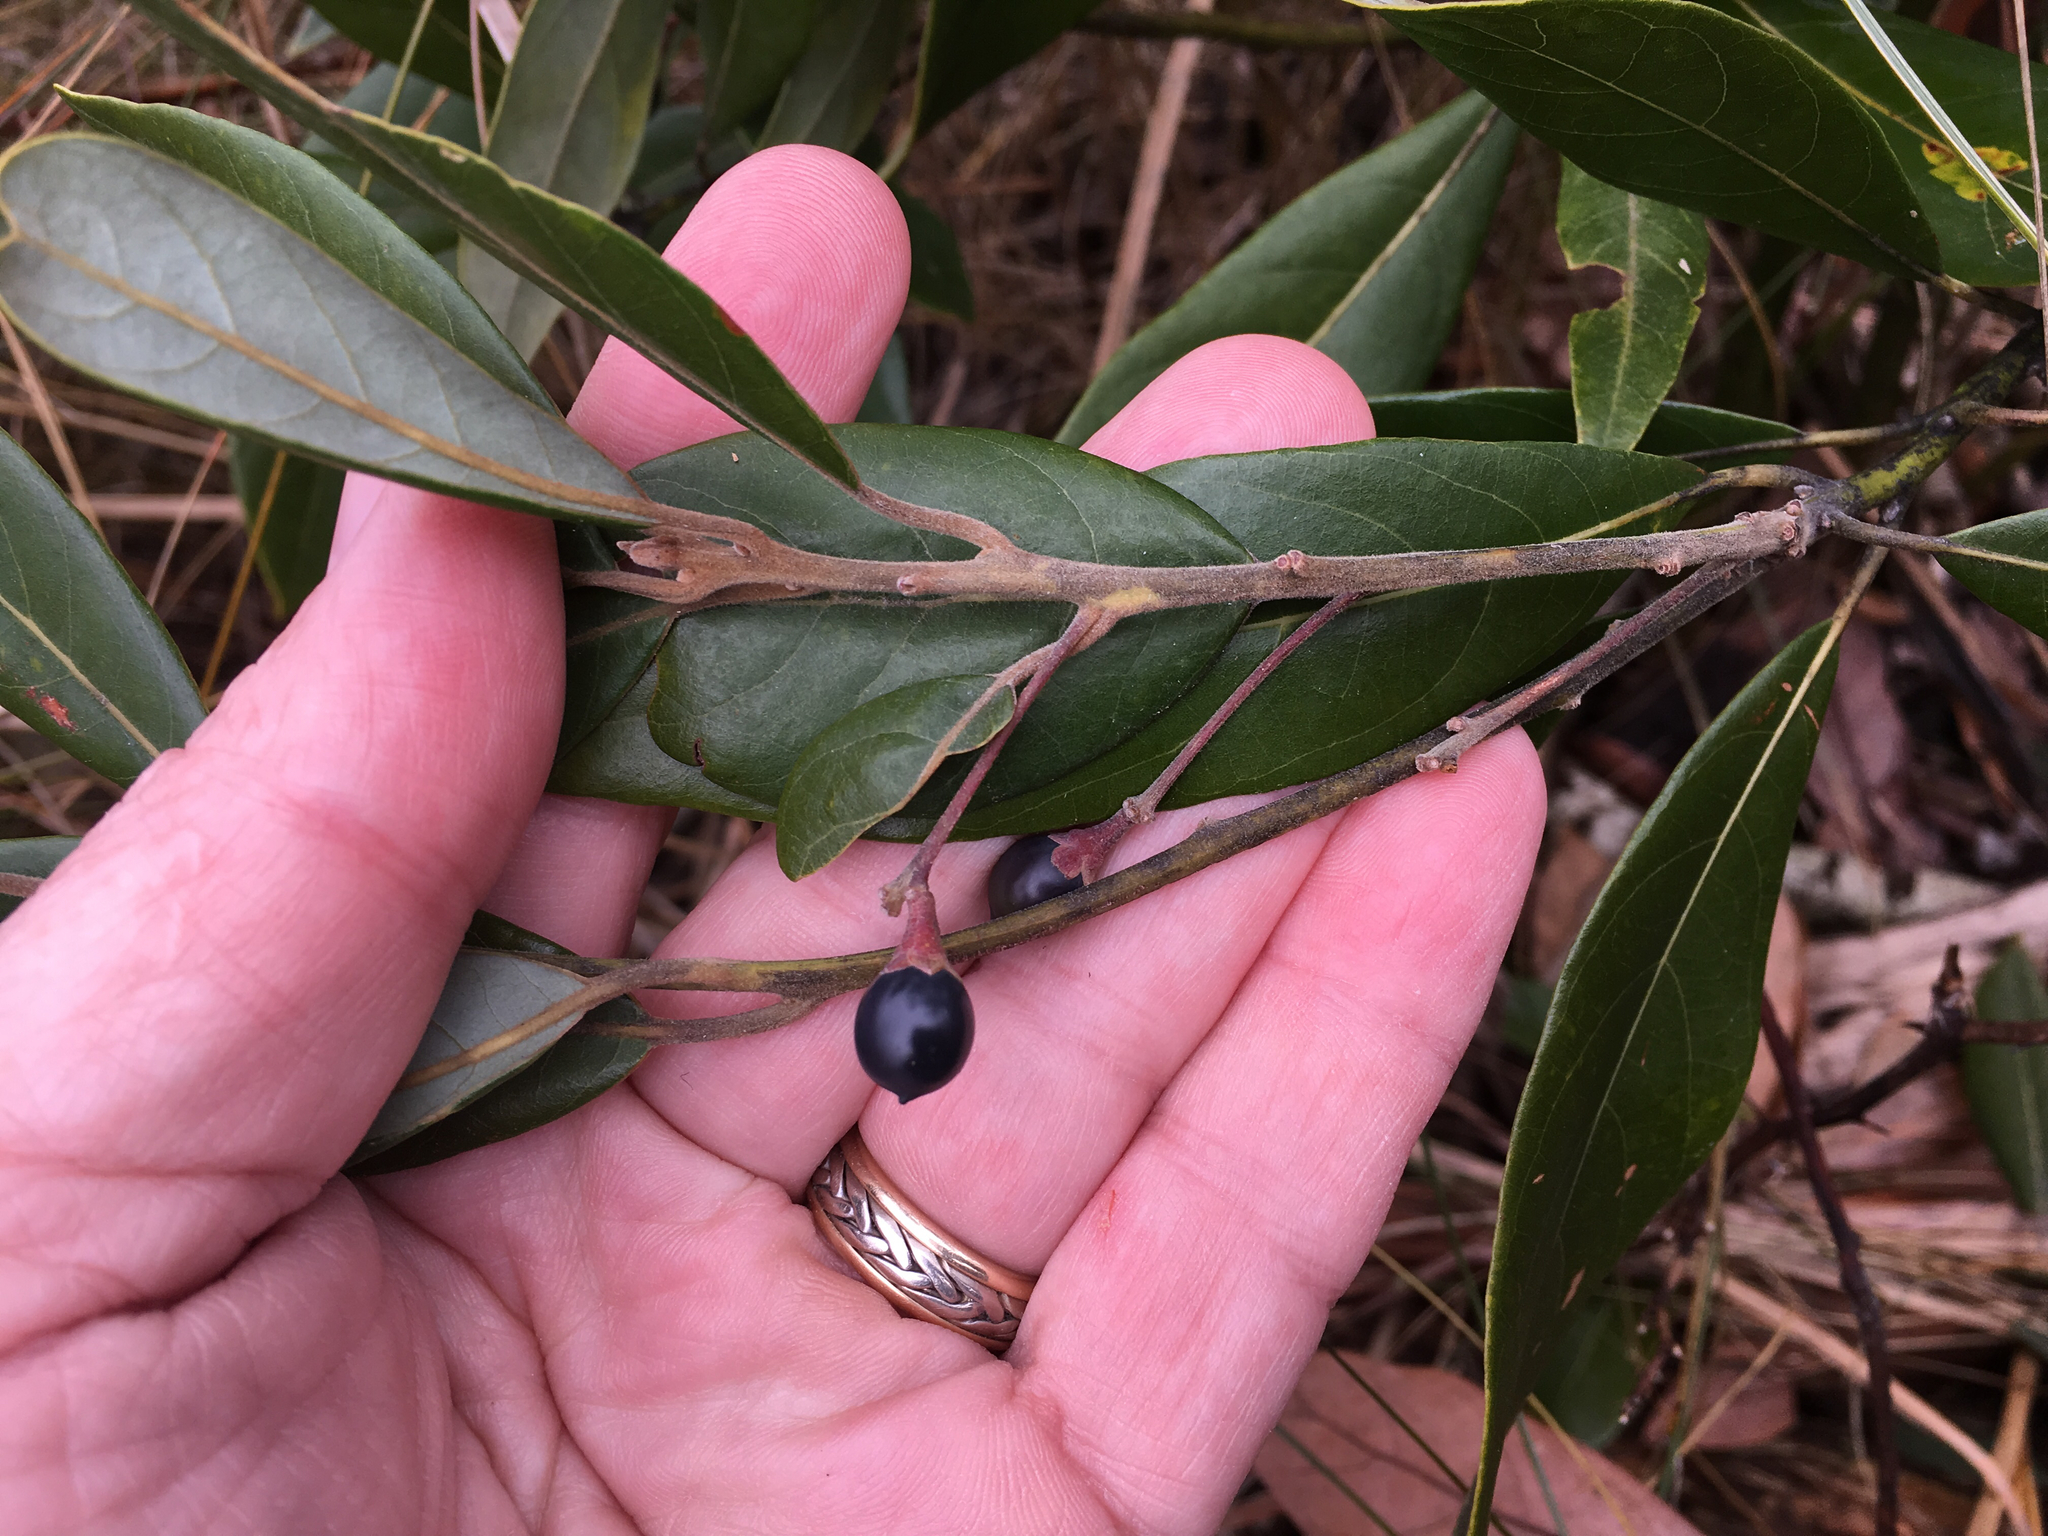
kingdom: Plantae
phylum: Tracheophyta
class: Magnoliopsida
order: Laurales
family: Lauraceae
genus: Persea
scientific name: Persea palustris
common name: Swampbay
